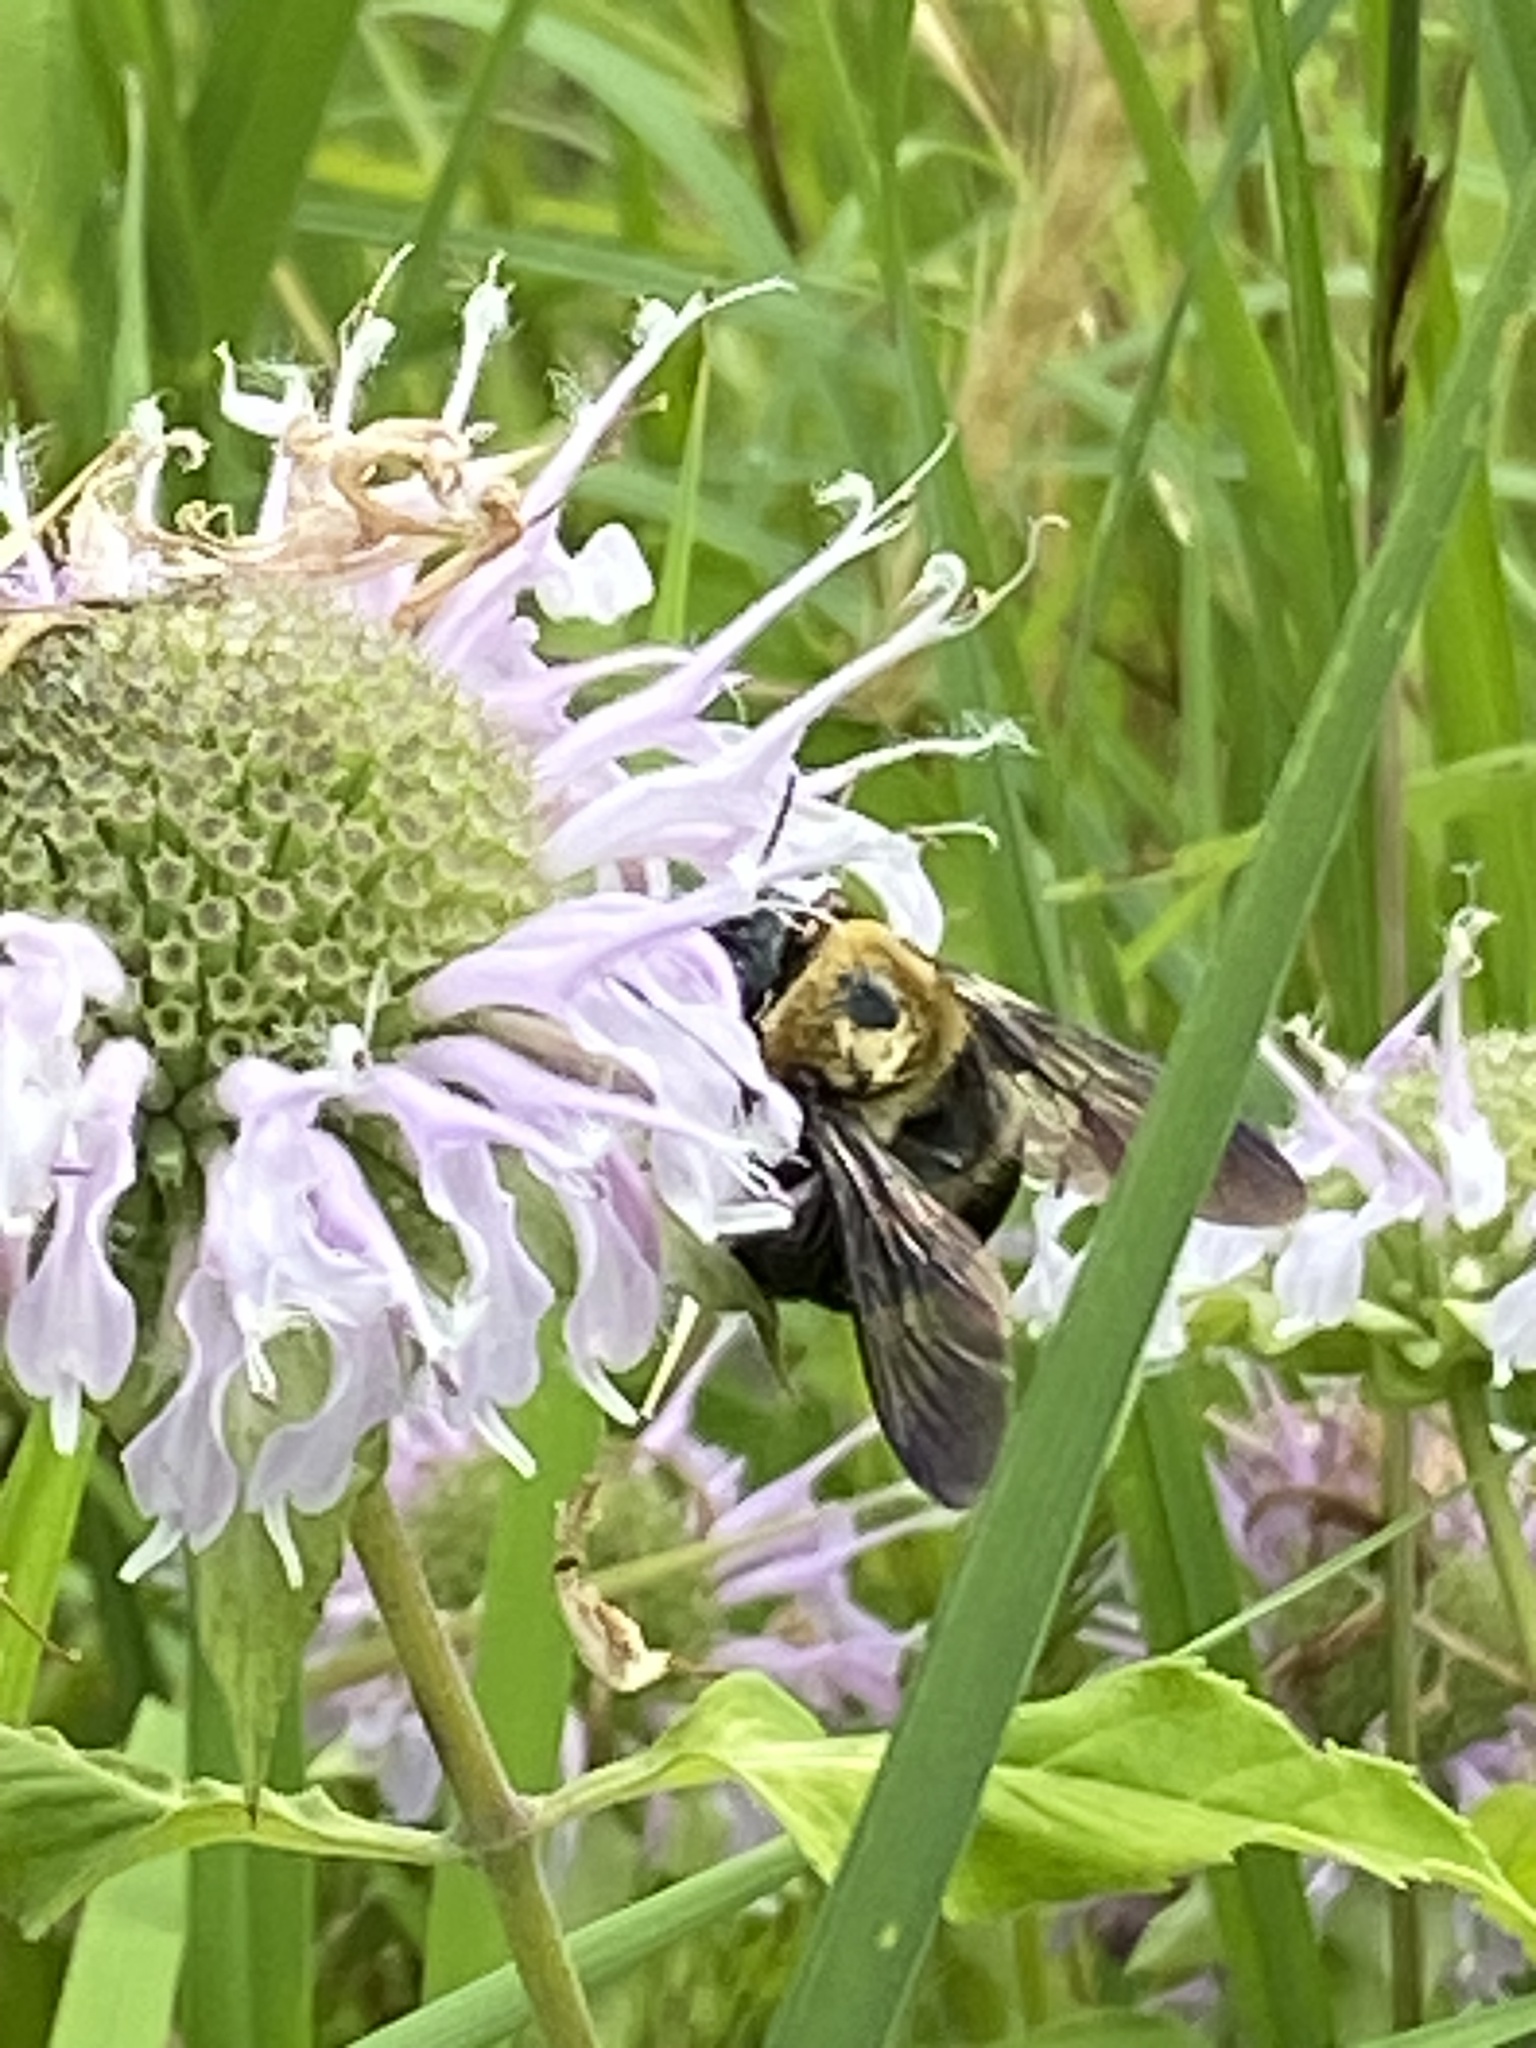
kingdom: Animalia
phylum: Arthropoda
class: Insecta
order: Hymenoptera
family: Apidae
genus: Xylocopa
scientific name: Xylocopa virginica
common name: Carpenter bee
